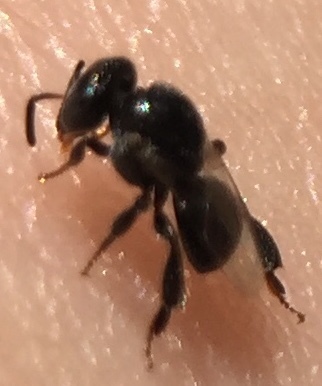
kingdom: Animalia
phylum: Arthropoda
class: Insecta
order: Hymenoptera
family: Apidae
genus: Plebeina
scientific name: Plebeina armata
